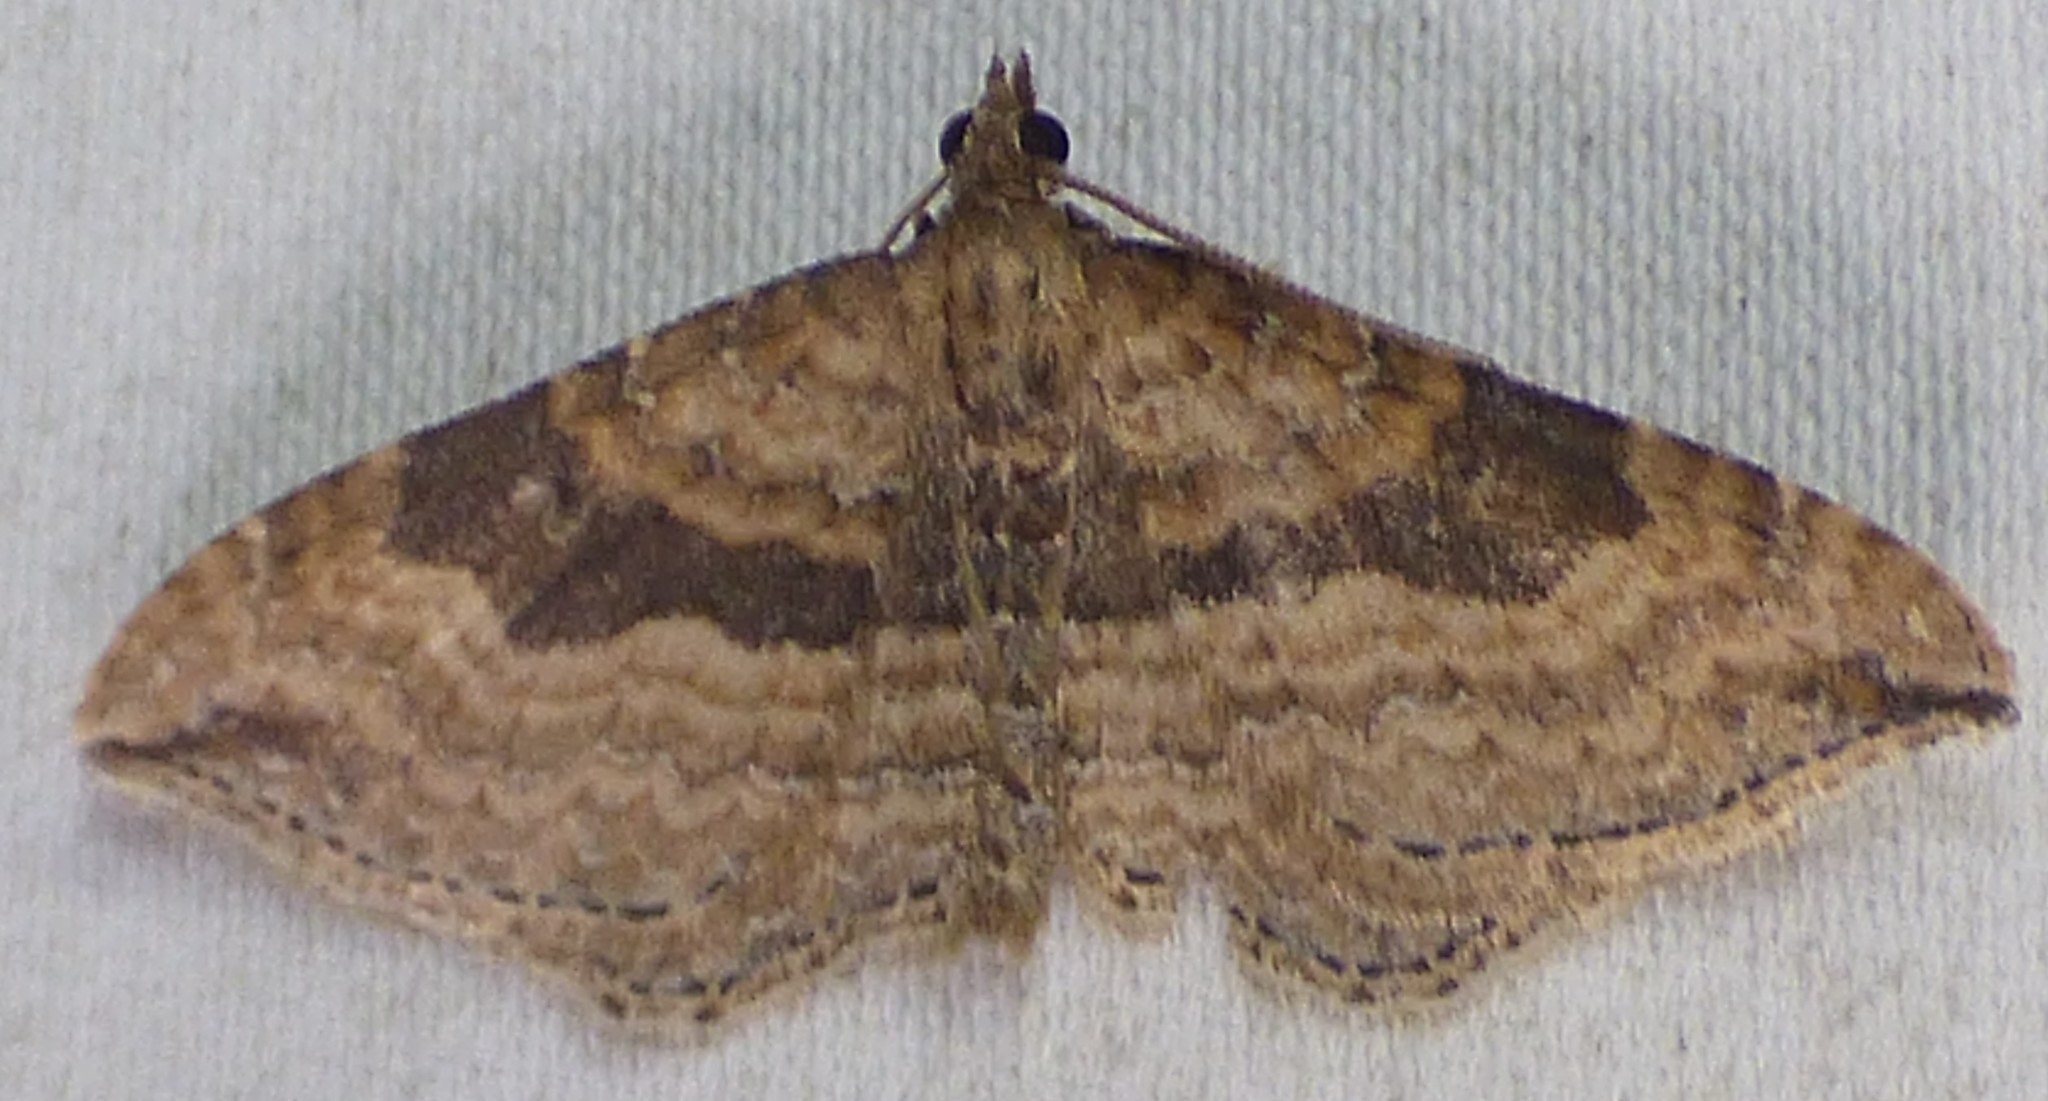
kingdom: Animalia
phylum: Arthropoda
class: Insecta
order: Lepidoptera
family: Geometridae
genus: Orthonama
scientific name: Orthonama obstipata
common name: The gem
